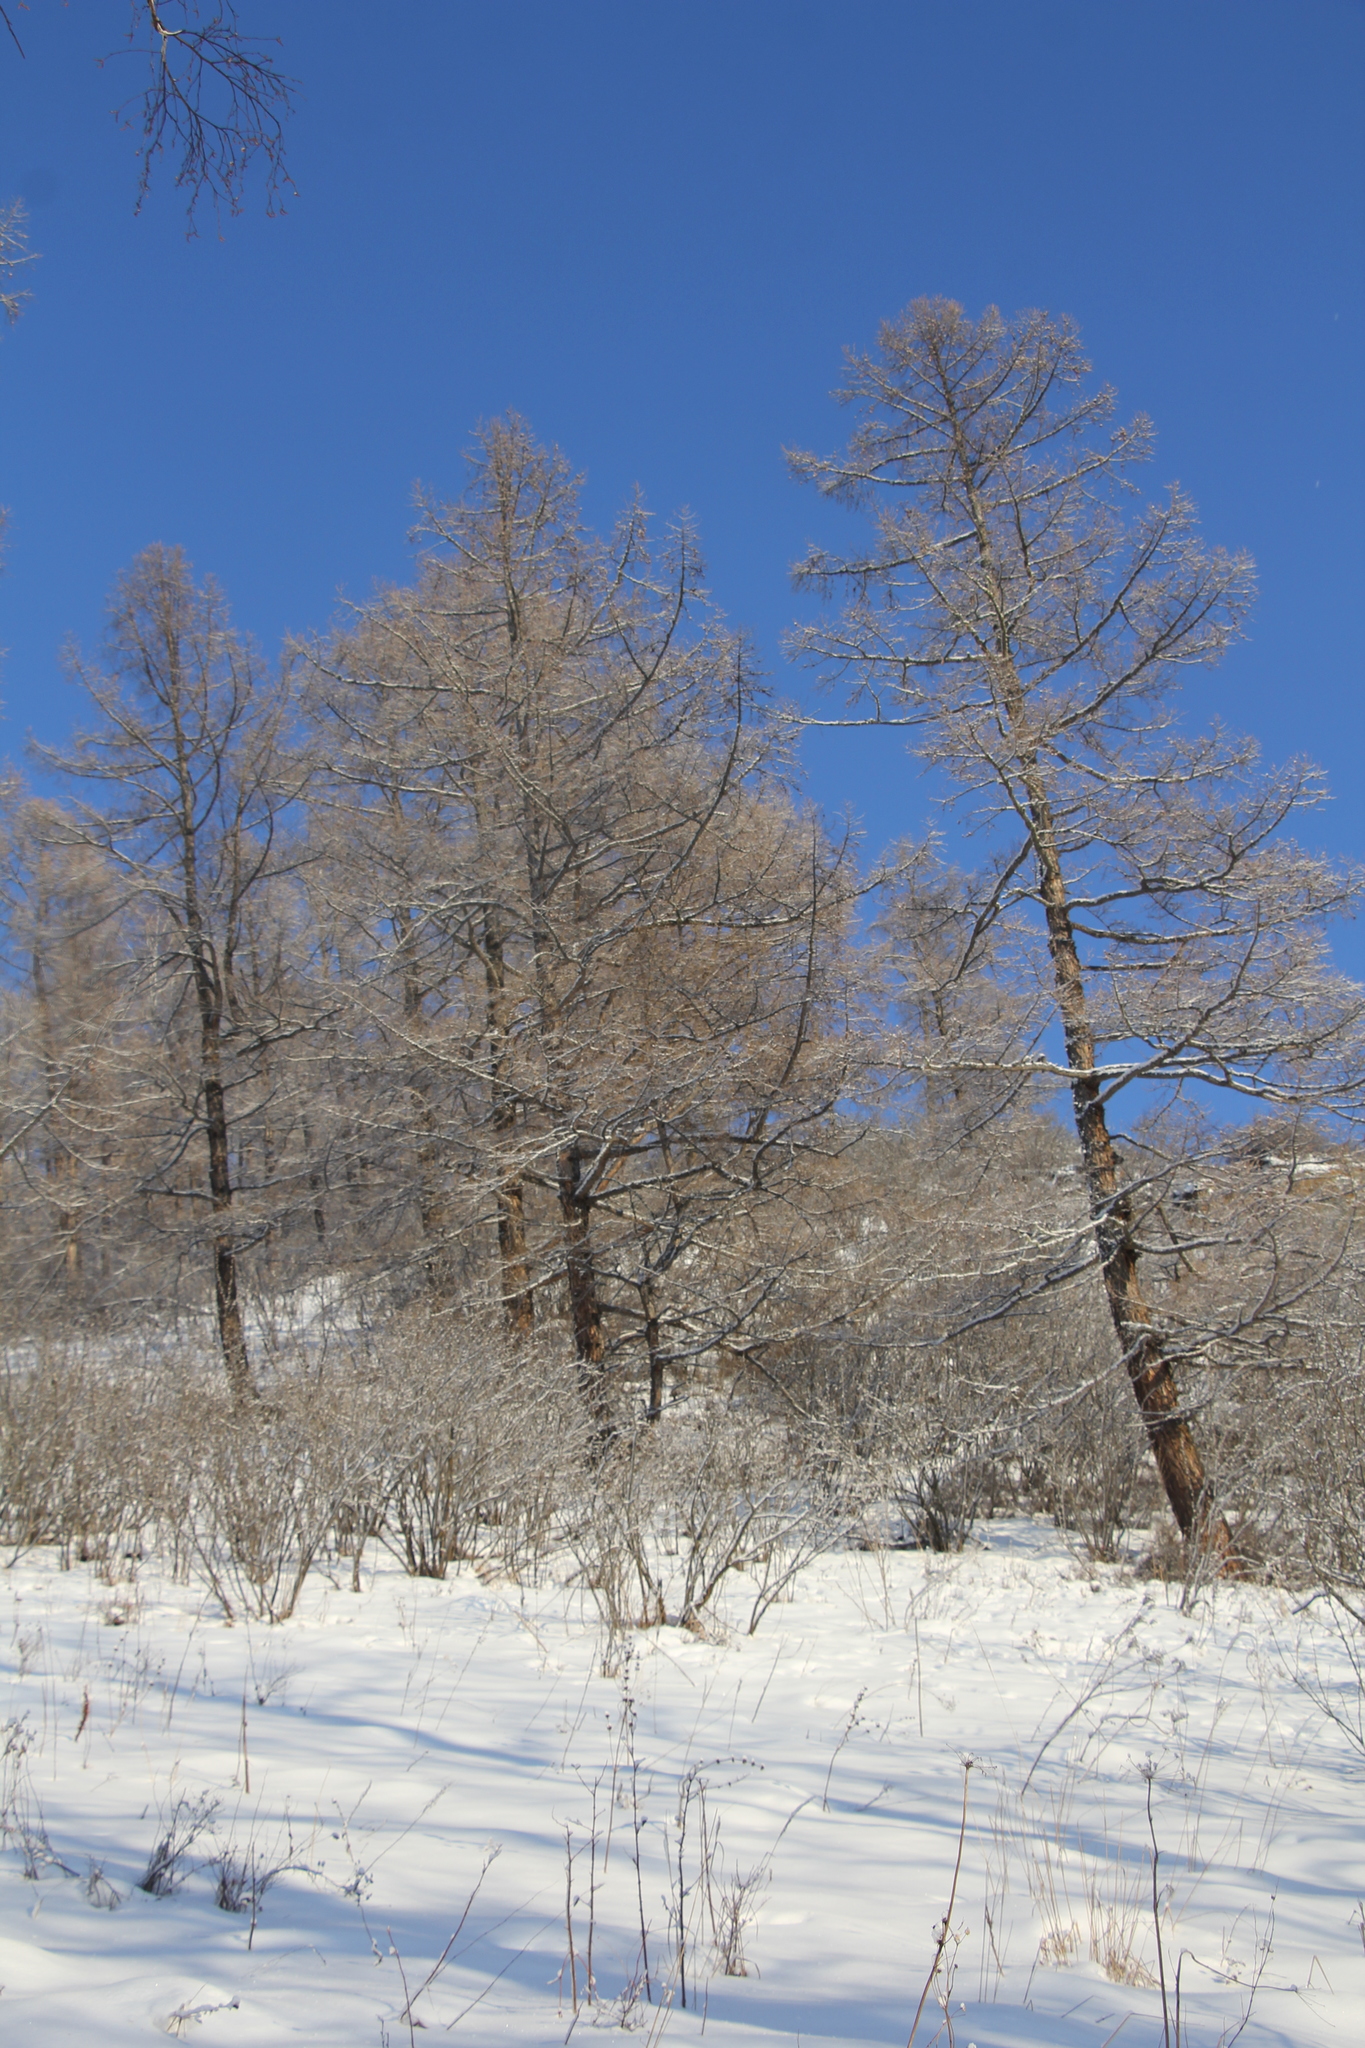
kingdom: Plantae
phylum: Tracheophyta
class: Pinopsida
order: Pinales
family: Pinaceae
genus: Larix
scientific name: Larix sibirica
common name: Siberian larch
